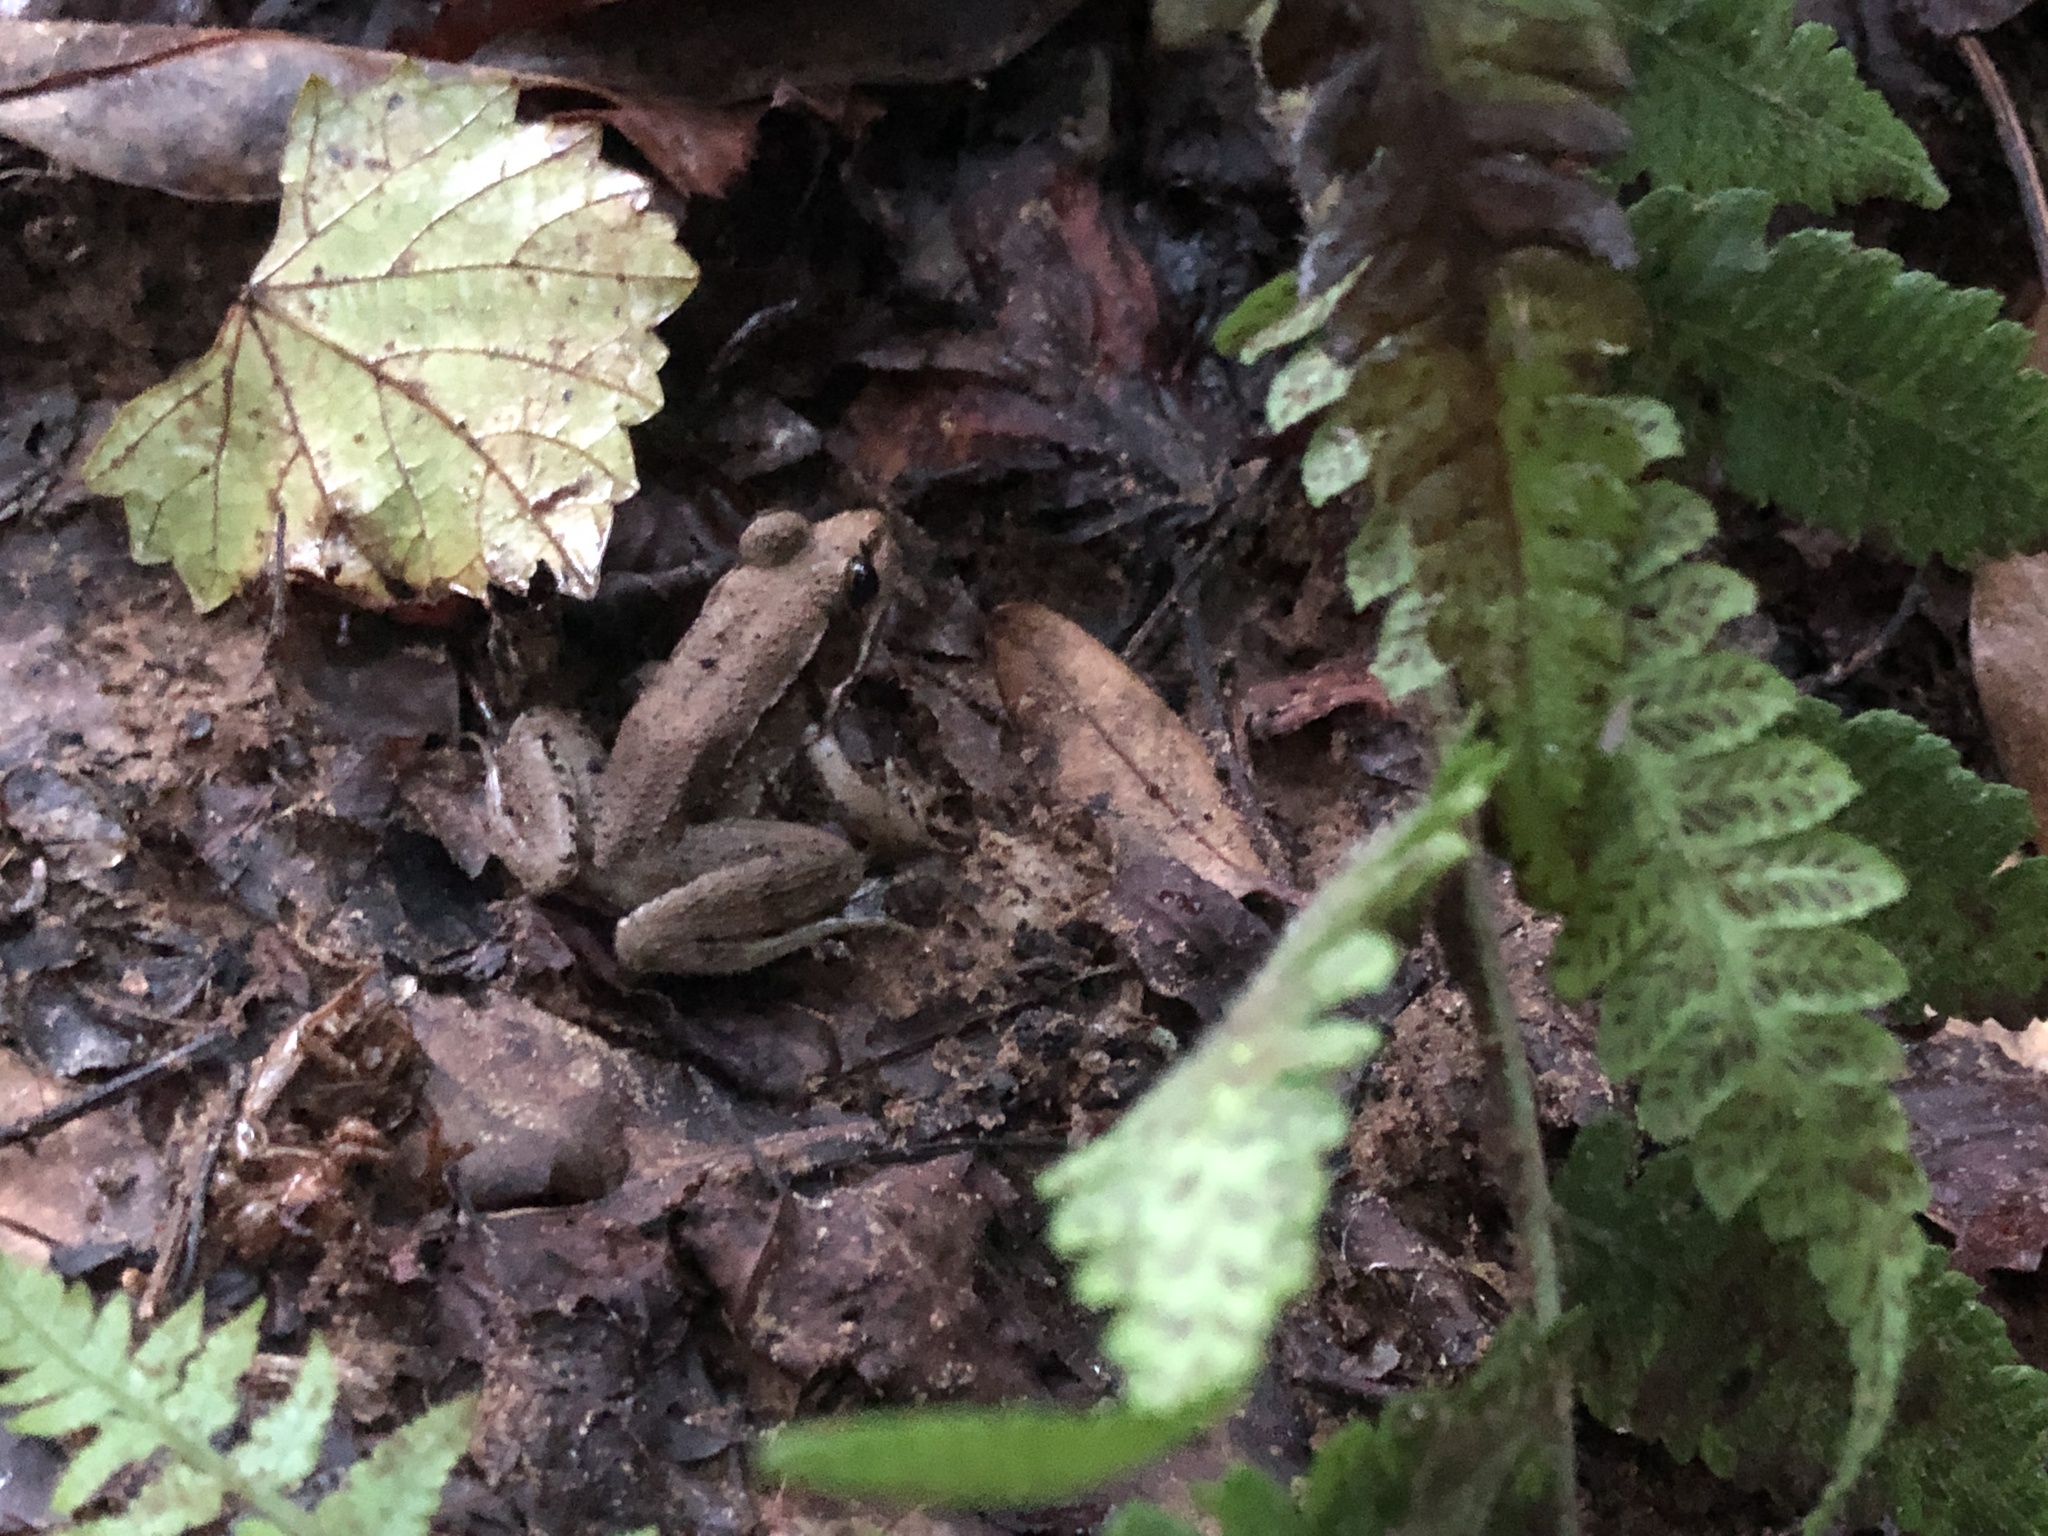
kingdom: Animalia
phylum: Chordata
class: Amphibia
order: Anura
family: Ranidae
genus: Lithobates
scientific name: Lithobates clamitans
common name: Green frog
